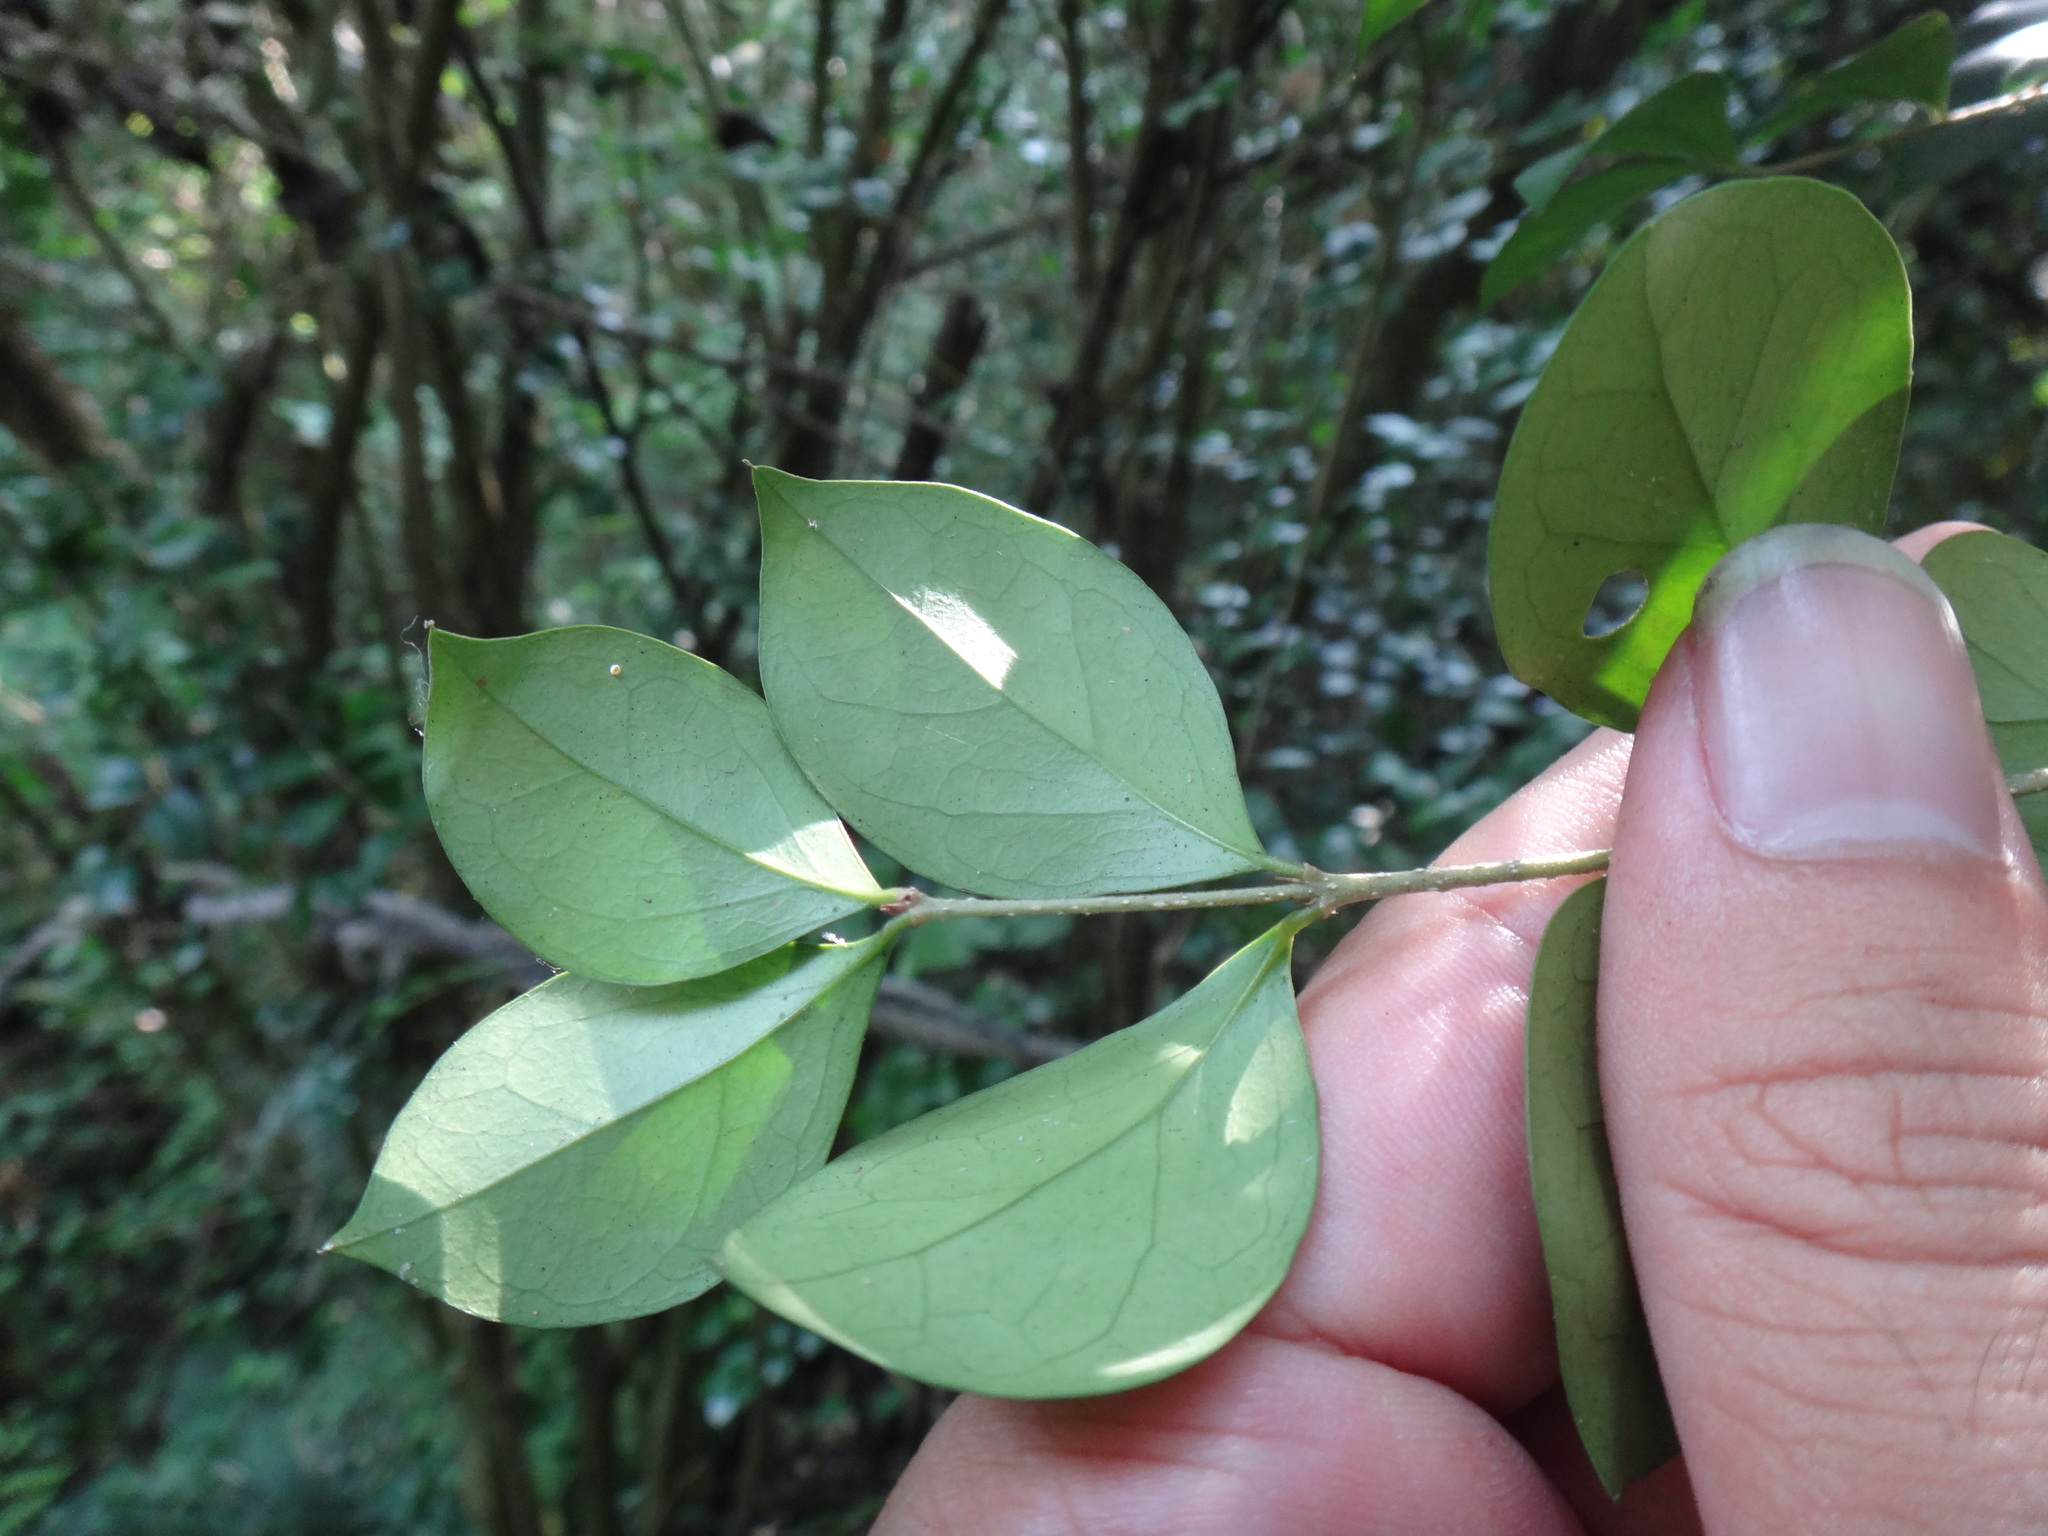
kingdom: Plantae
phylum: Tracheophyta
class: Magnoliopsida
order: Lamiales
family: Oleaceae
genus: Ligustrum
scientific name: Ligustrum pricei
